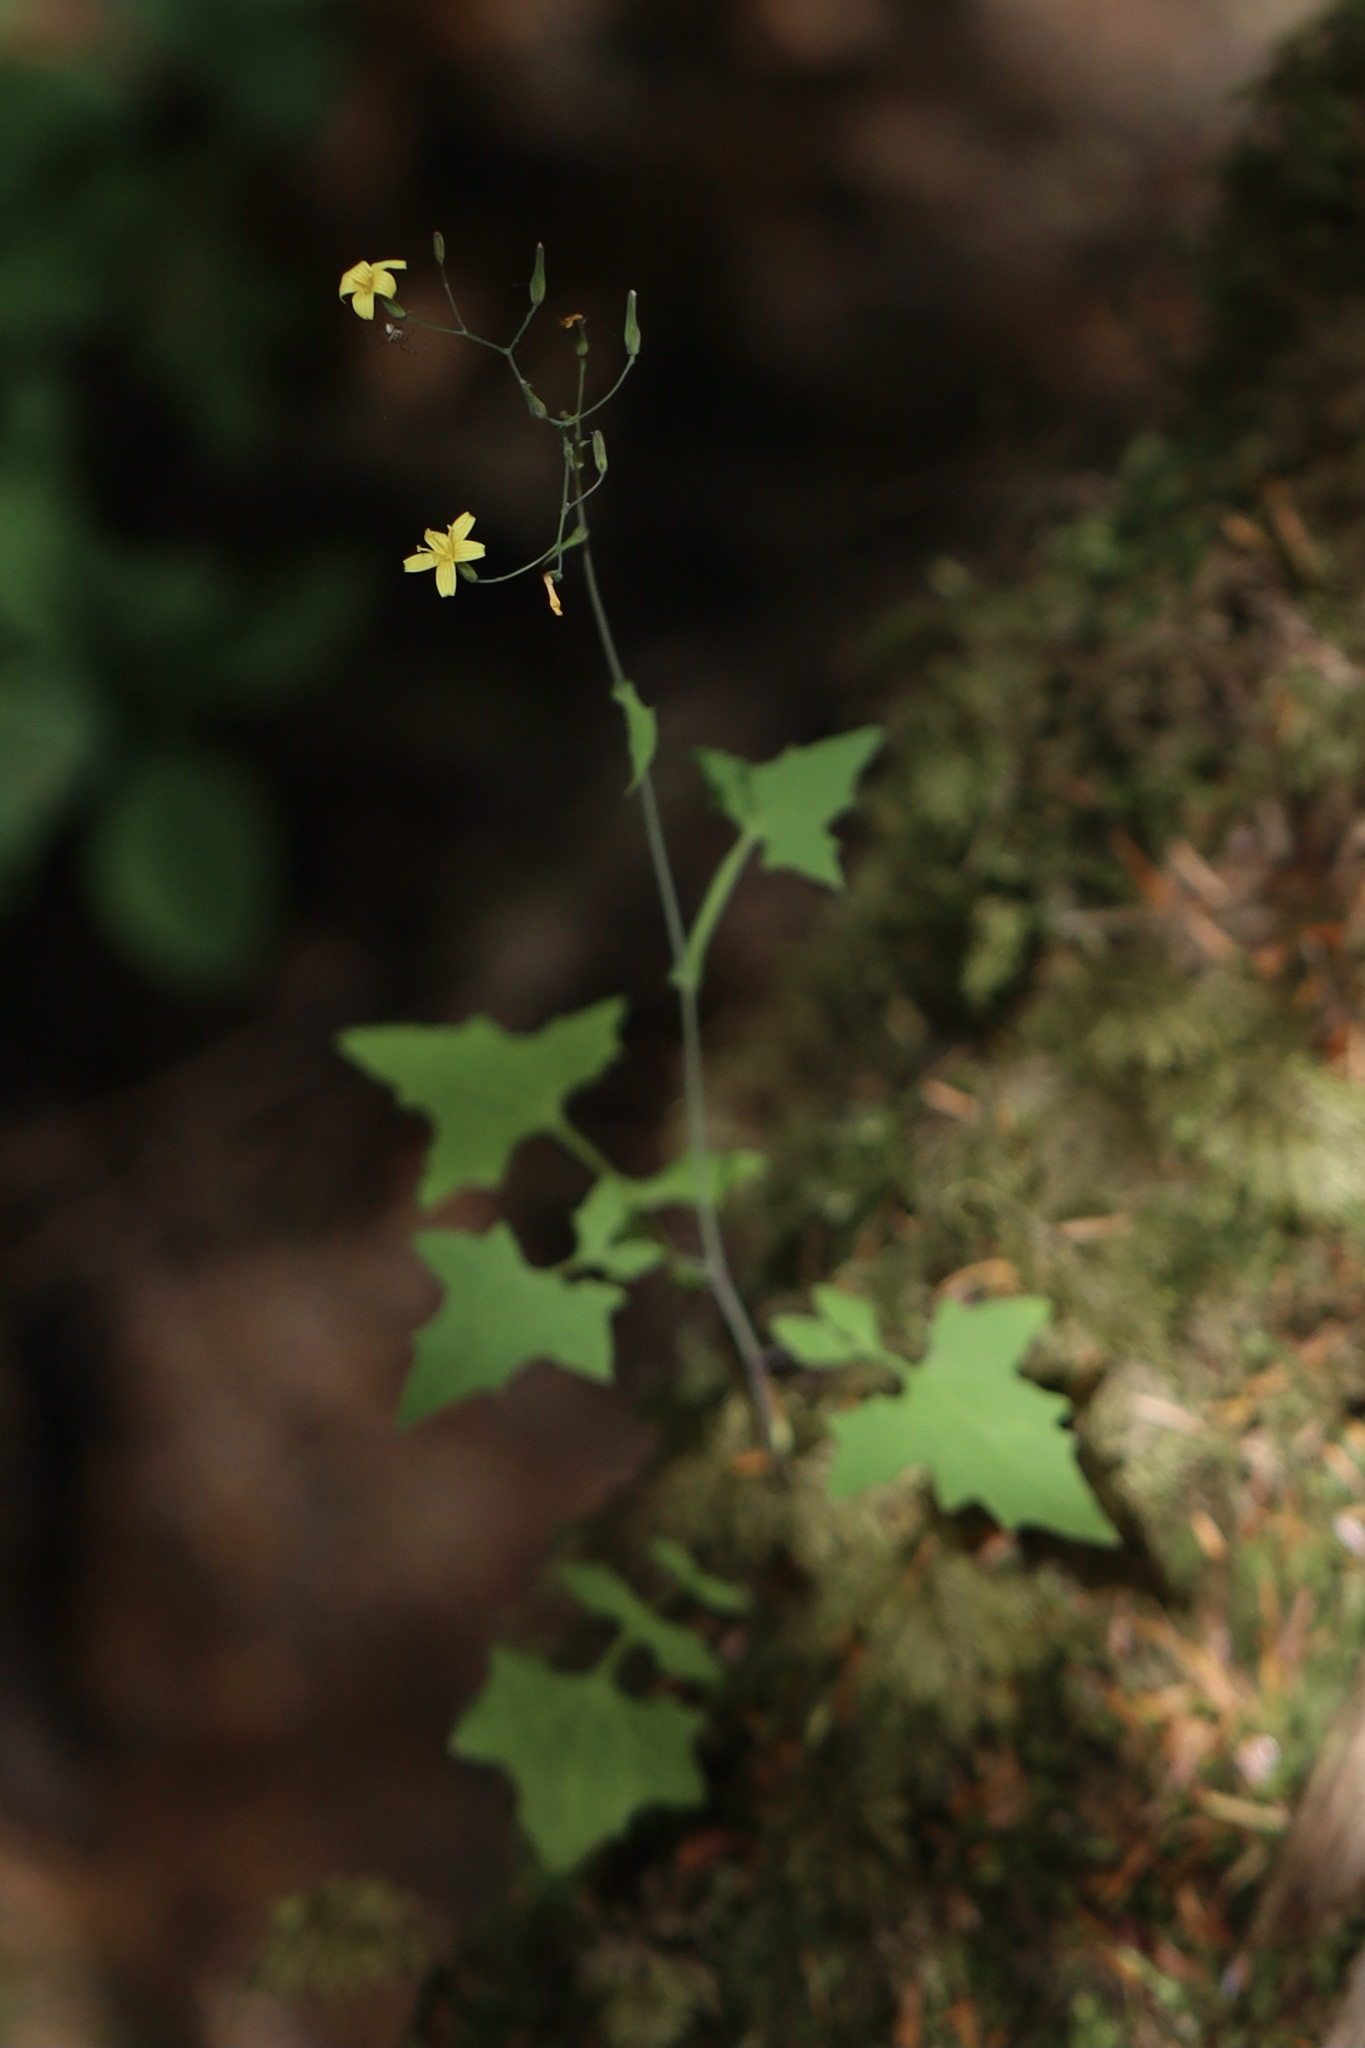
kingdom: Plantae
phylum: Tracheophyta
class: Magnoliopsida
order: Asterales
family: Asteraceae
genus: Mycelis
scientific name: Mycelis muralis
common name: Wall lettuce
